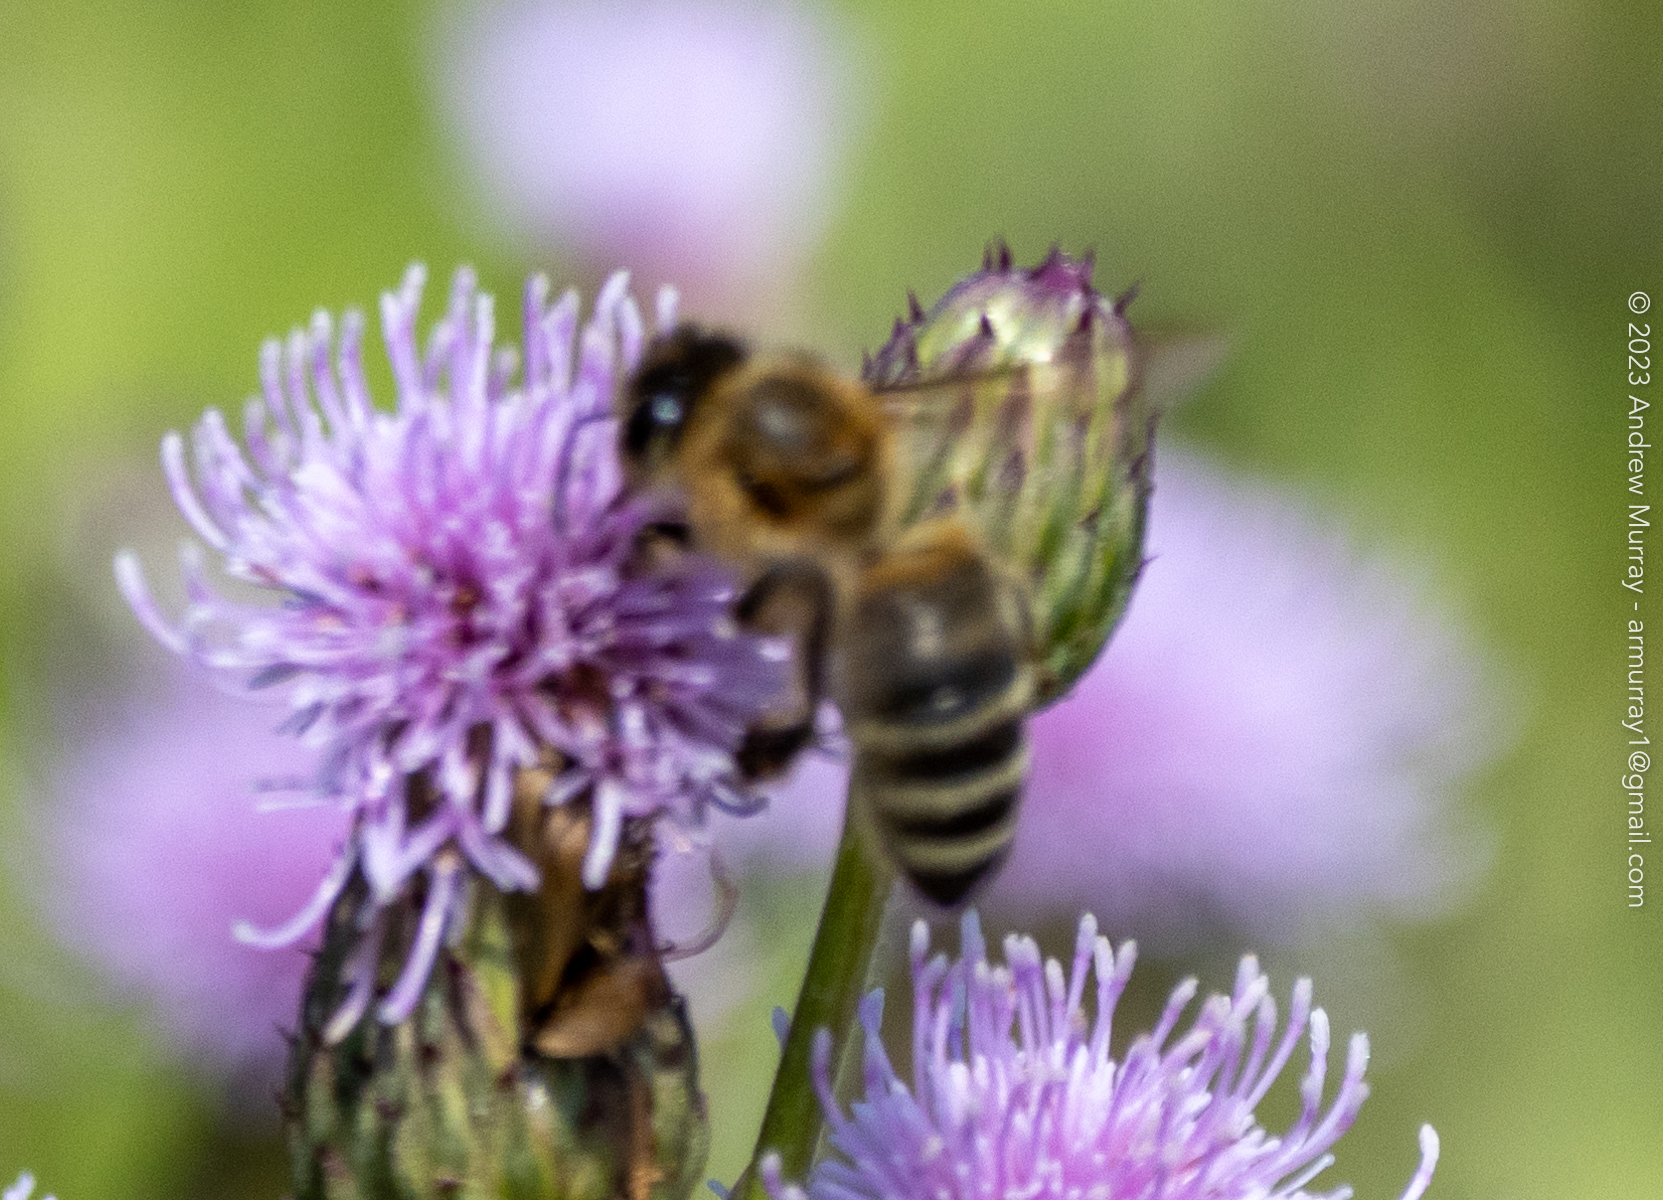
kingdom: Animalia
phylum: Arthropoda
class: Insecta
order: Hymenoptera
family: Apidae
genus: Apis
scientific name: Apis mellifera
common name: Honey bee
